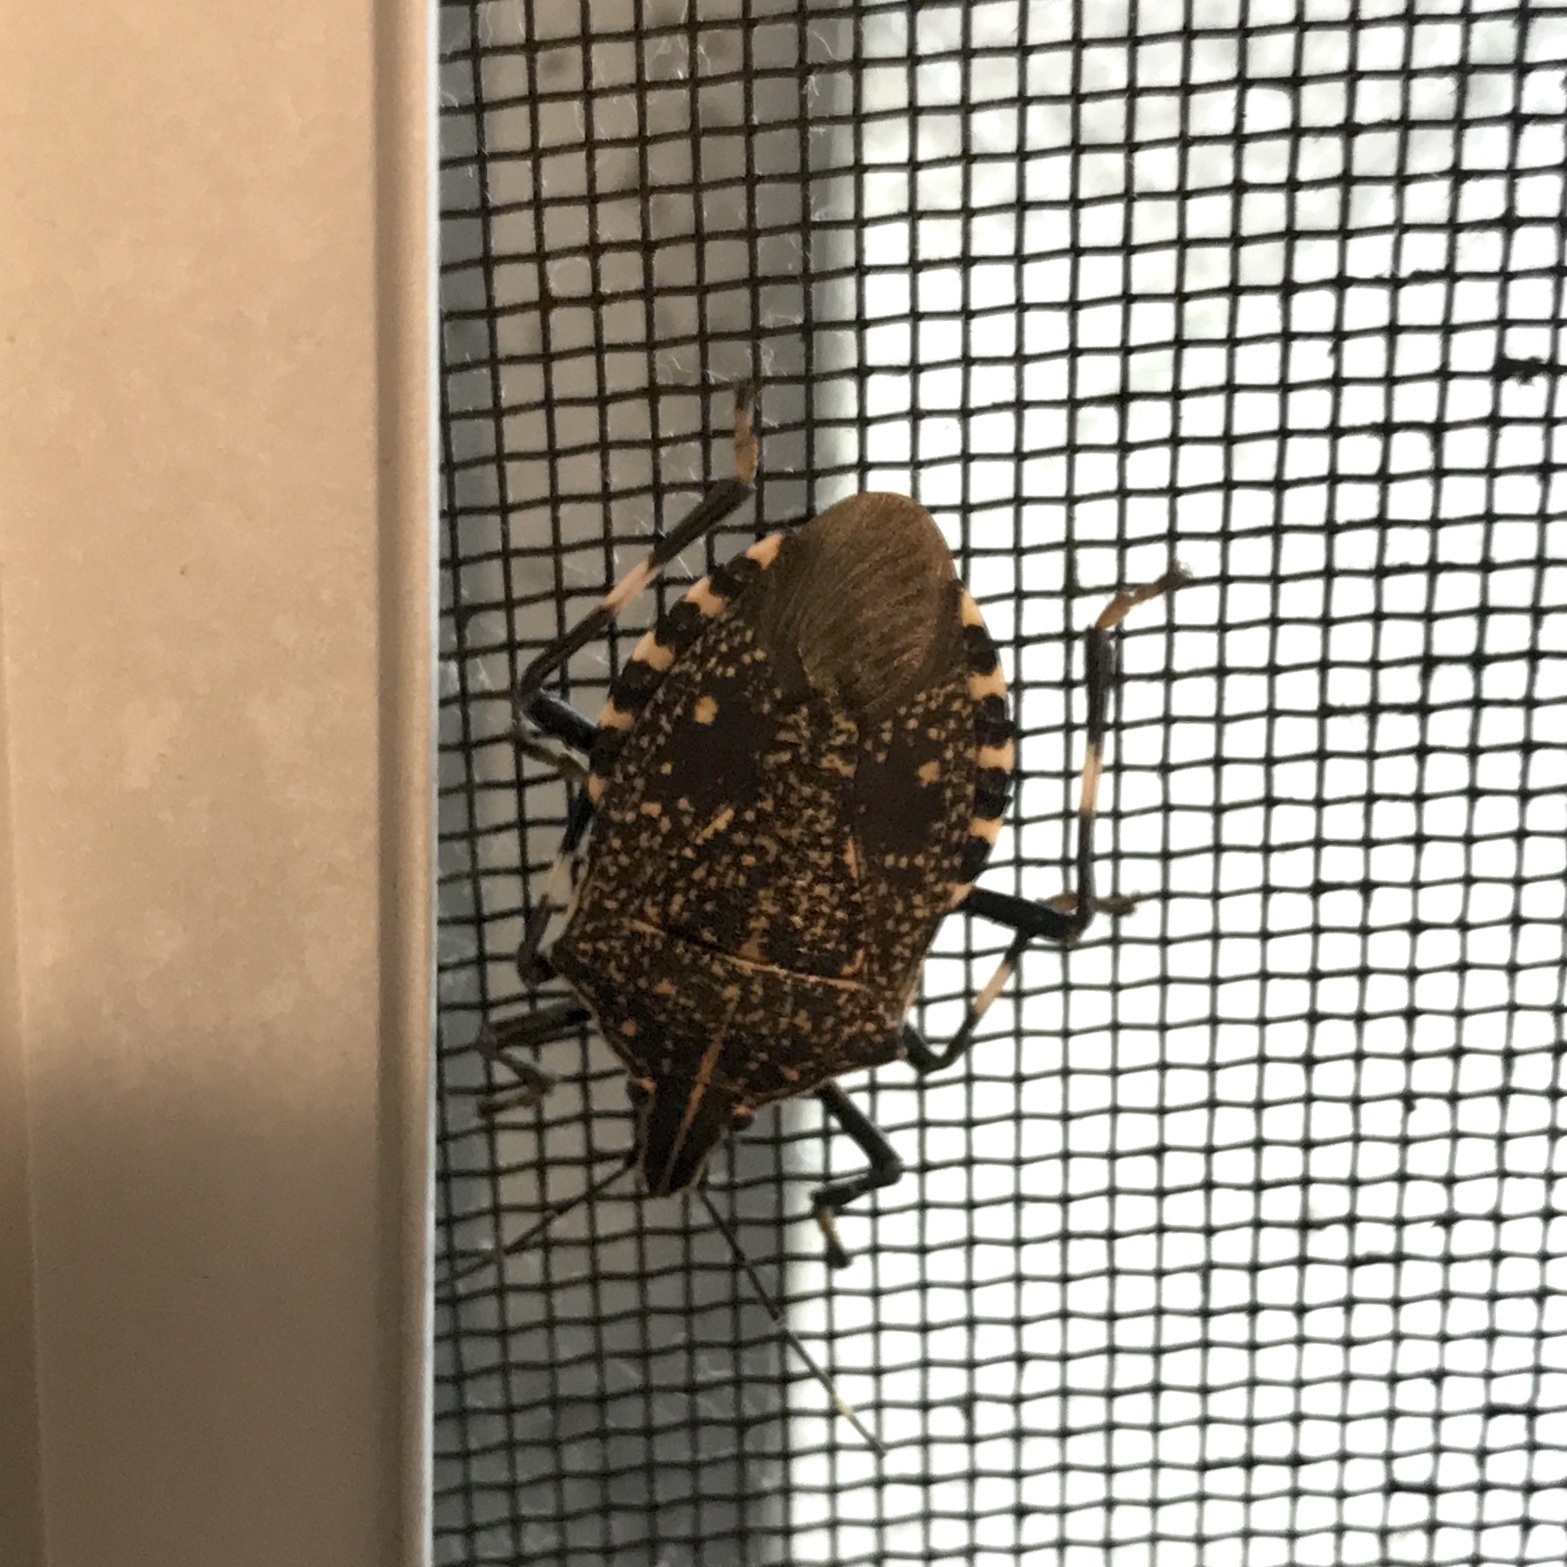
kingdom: Animalia
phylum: Arthropoda
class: Insecta
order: Hemiptera
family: Pentatomidae
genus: Erthesina
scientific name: Erthesina fullo
